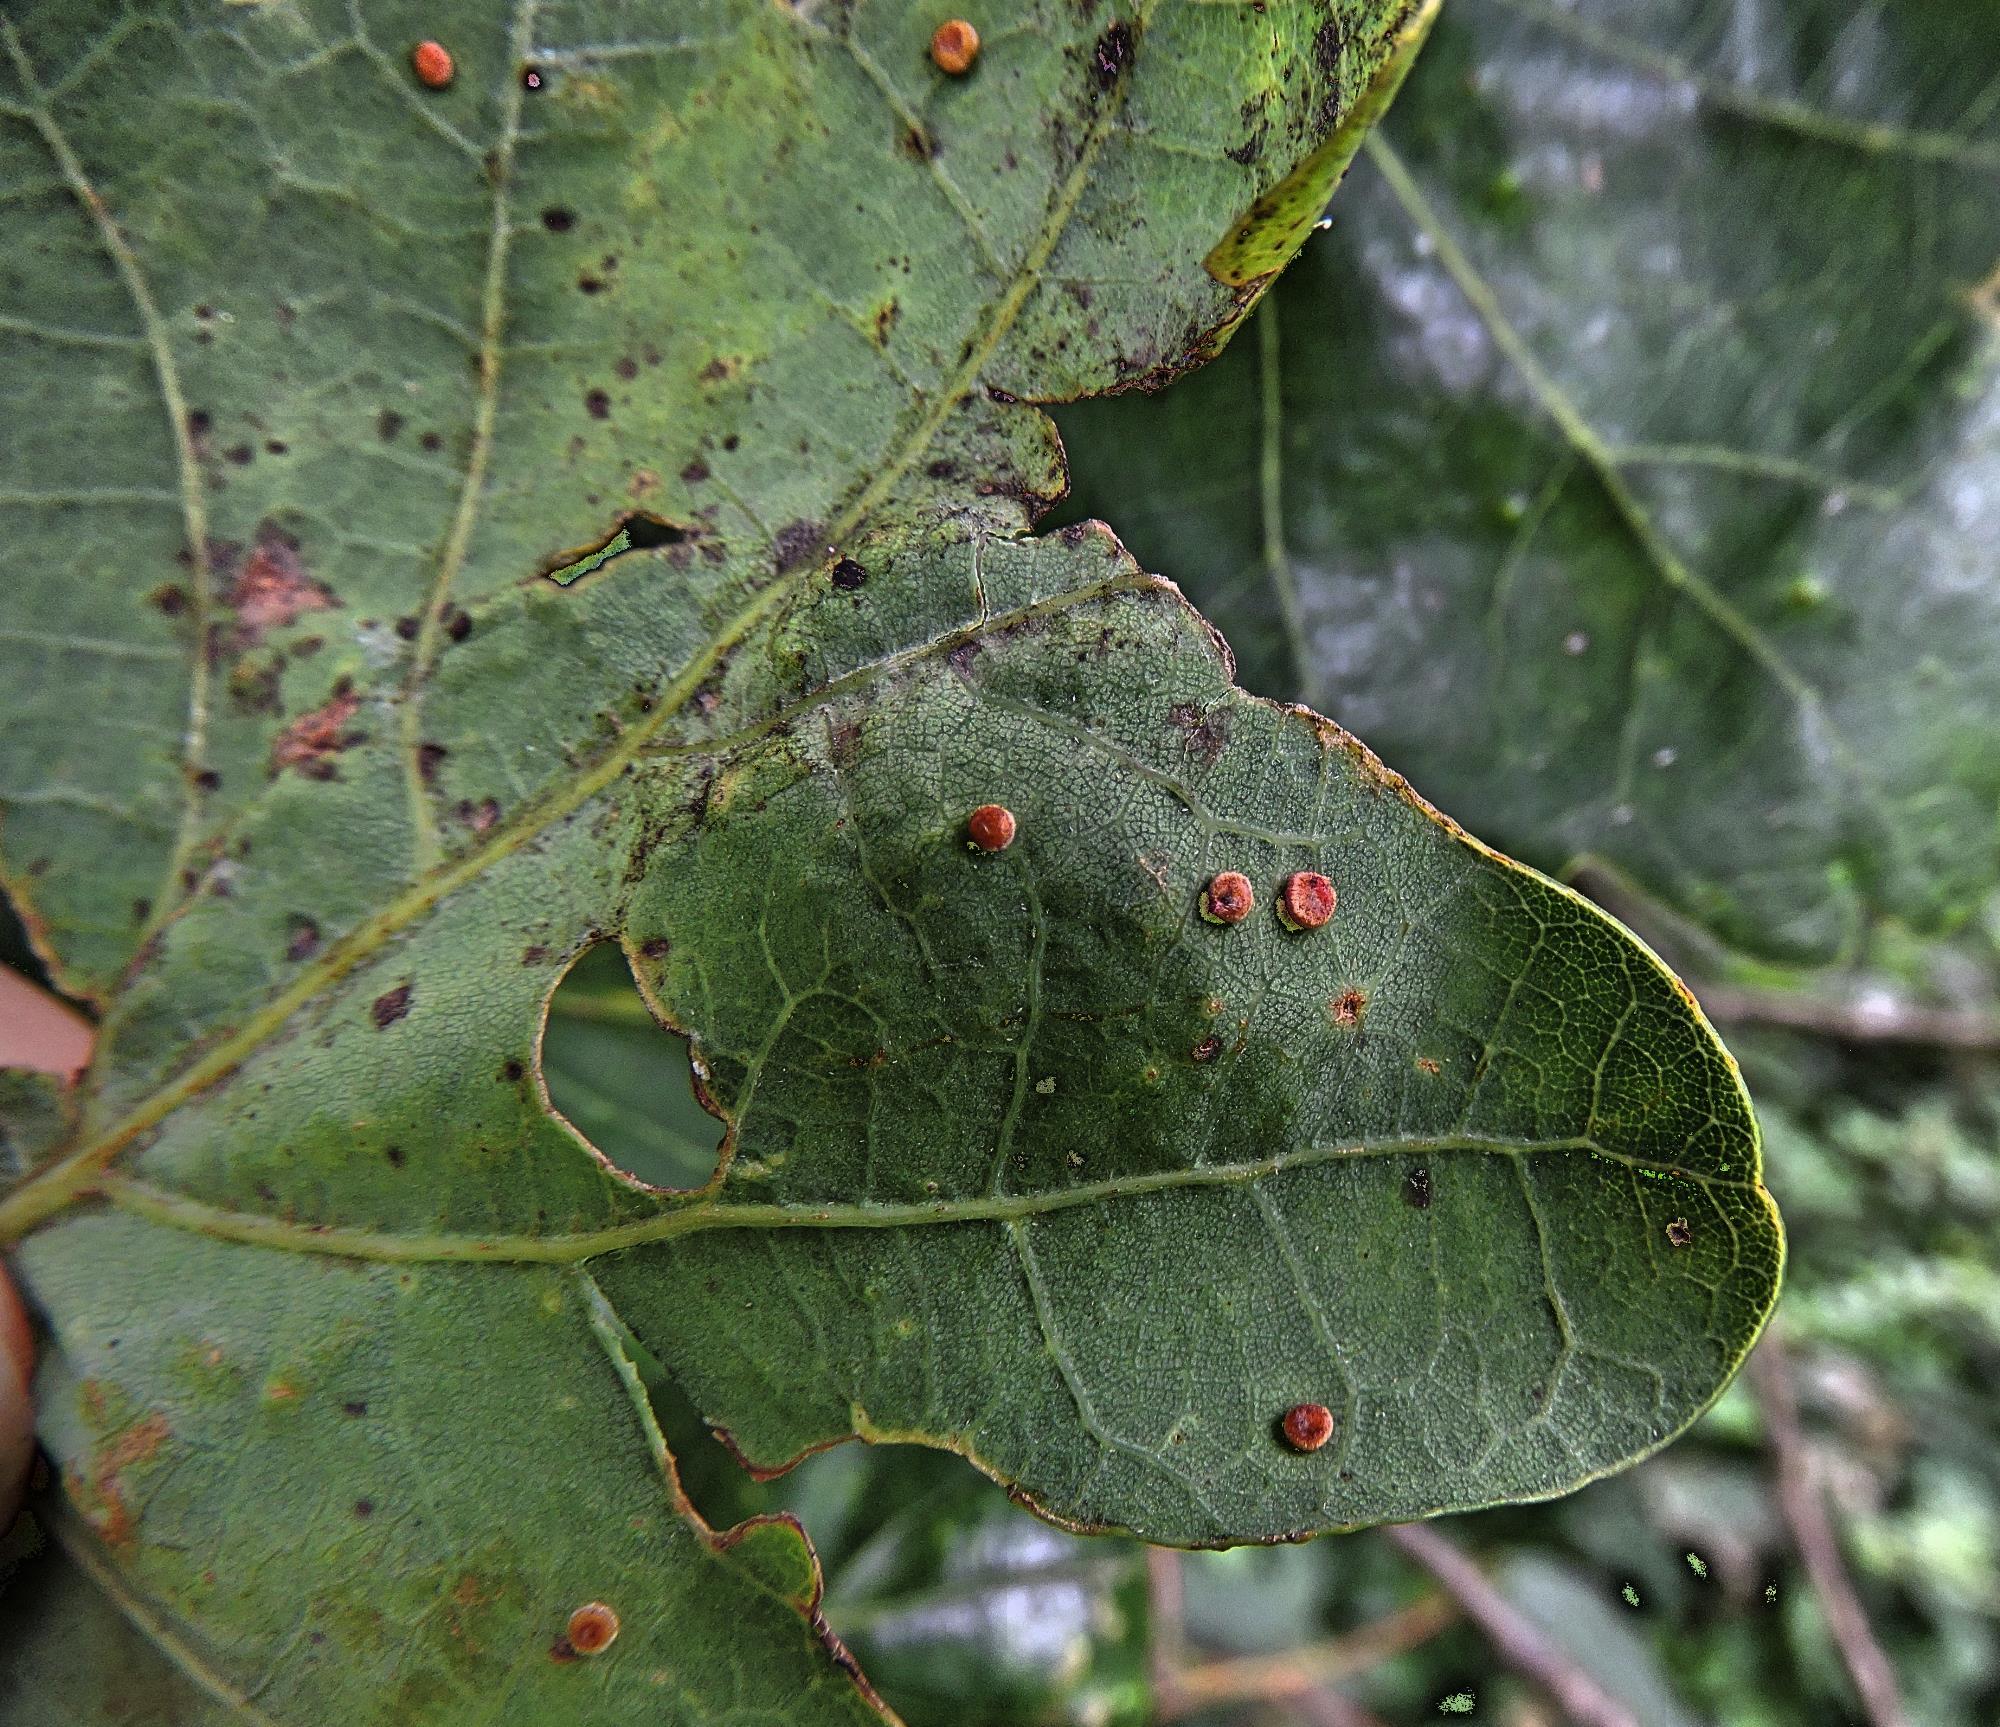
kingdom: Animalia
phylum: Arthropoda
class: Insecta
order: Hymenoptera
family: Cynipidae
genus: Neuroterus
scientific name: Neuroterus quercusbaccarum
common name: Common spangle gall
